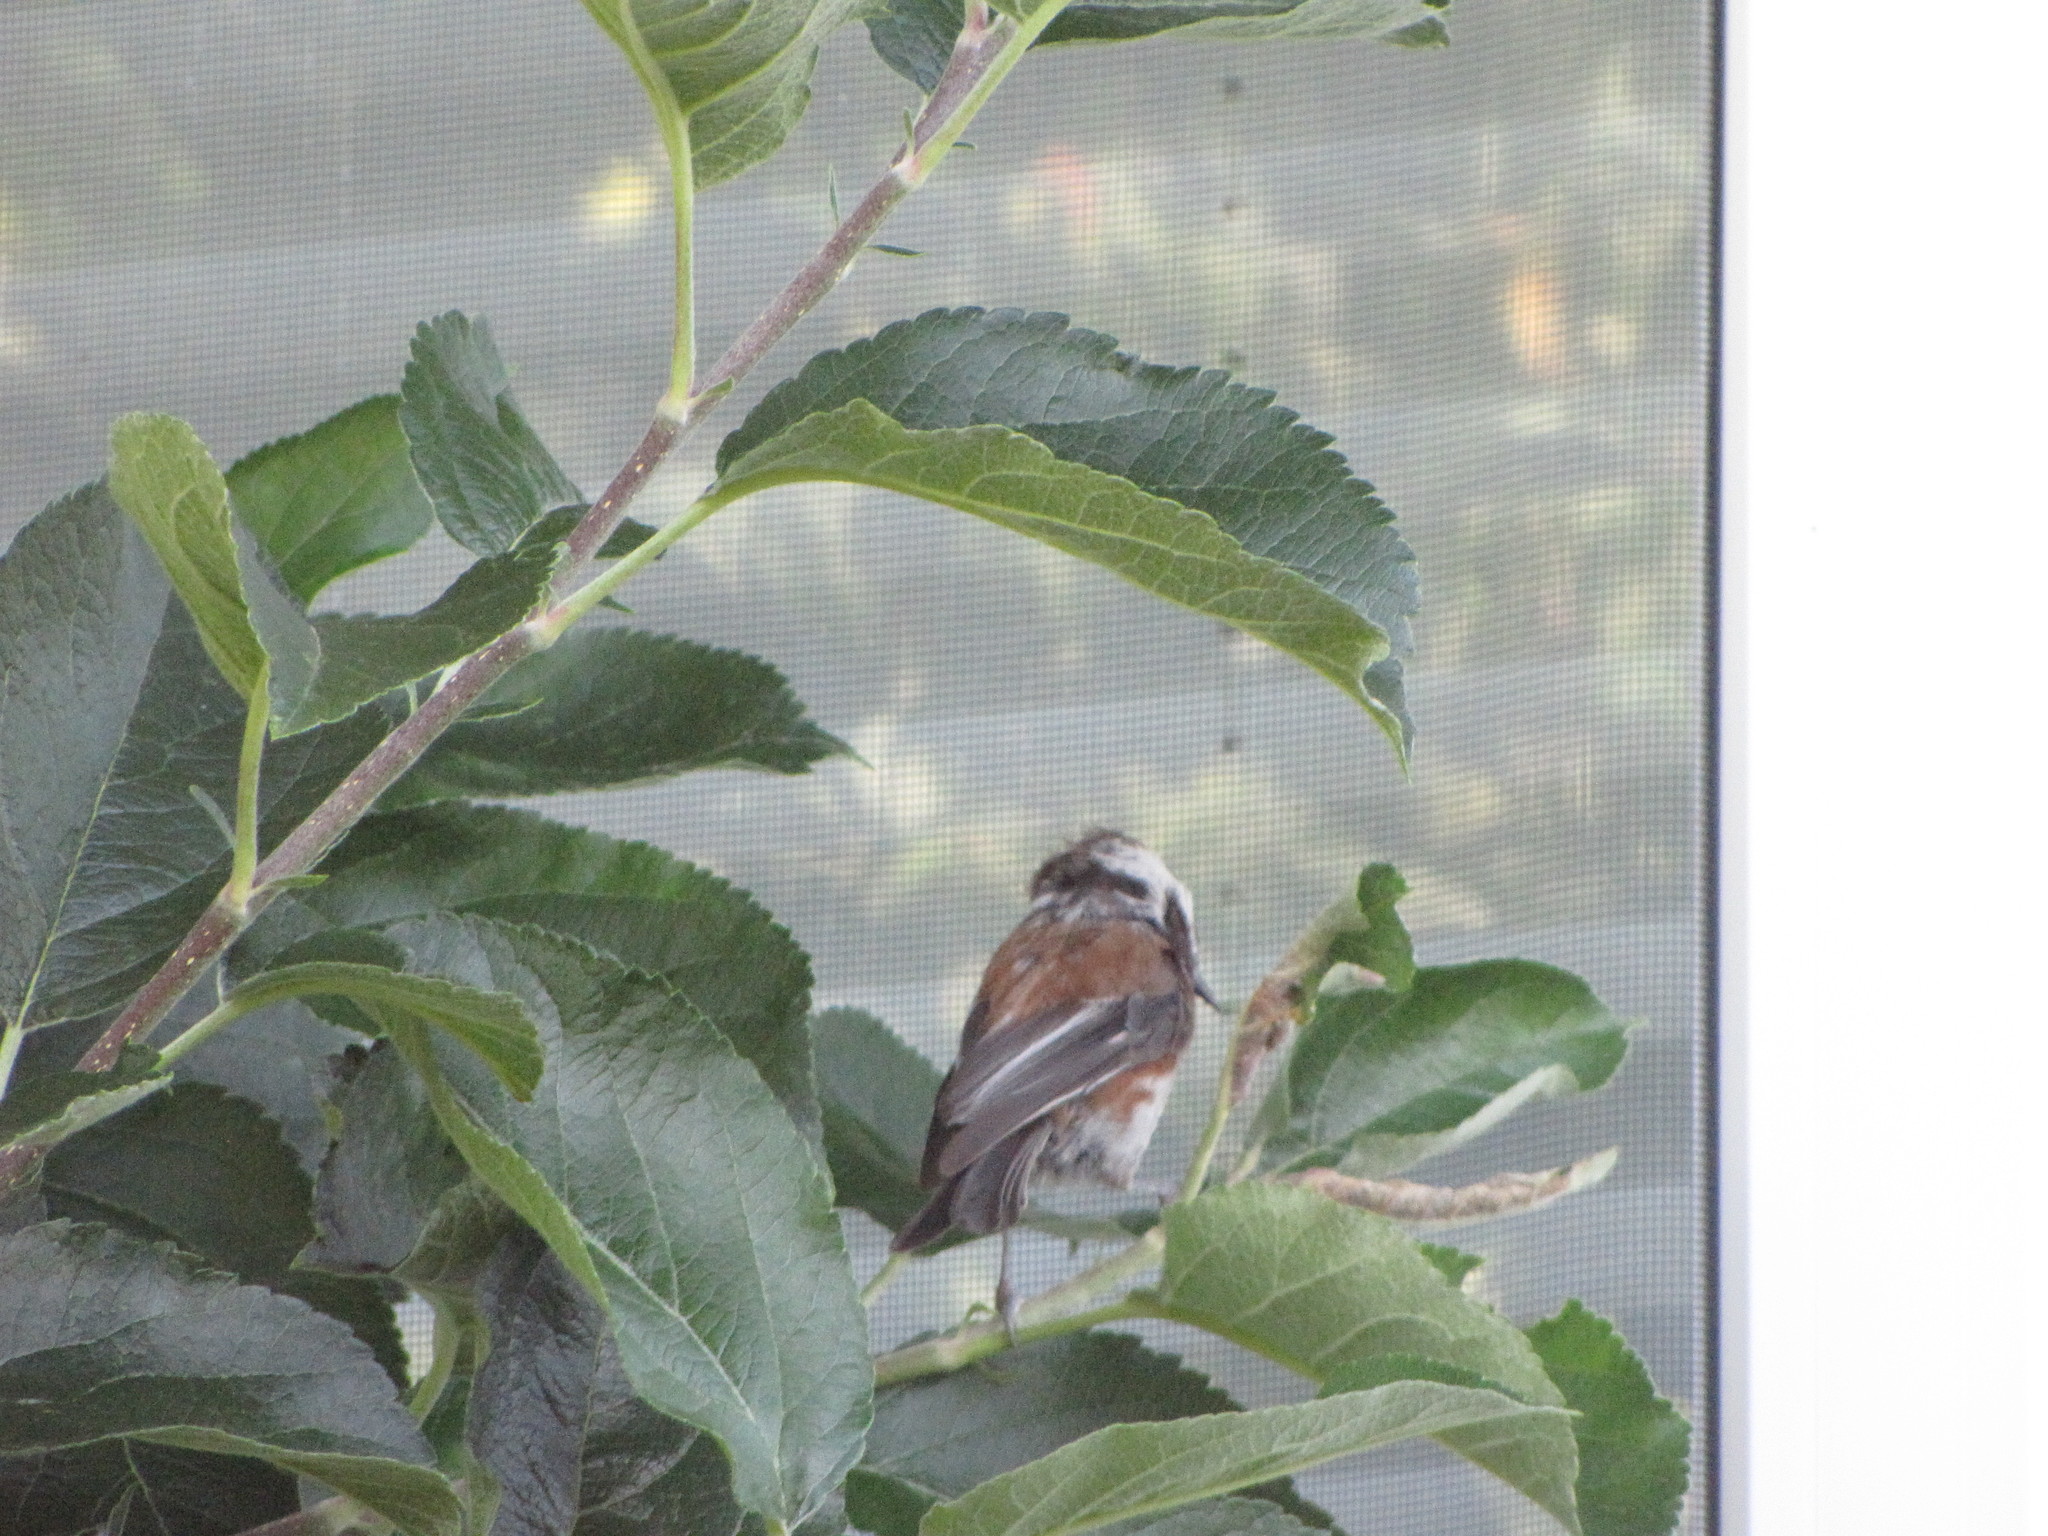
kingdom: Animalia
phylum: Chordata
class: Aves
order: Passeriformes
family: Paridae
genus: Poecile
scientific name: Poecile rufescens
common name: Chestnut-backed chickadee
